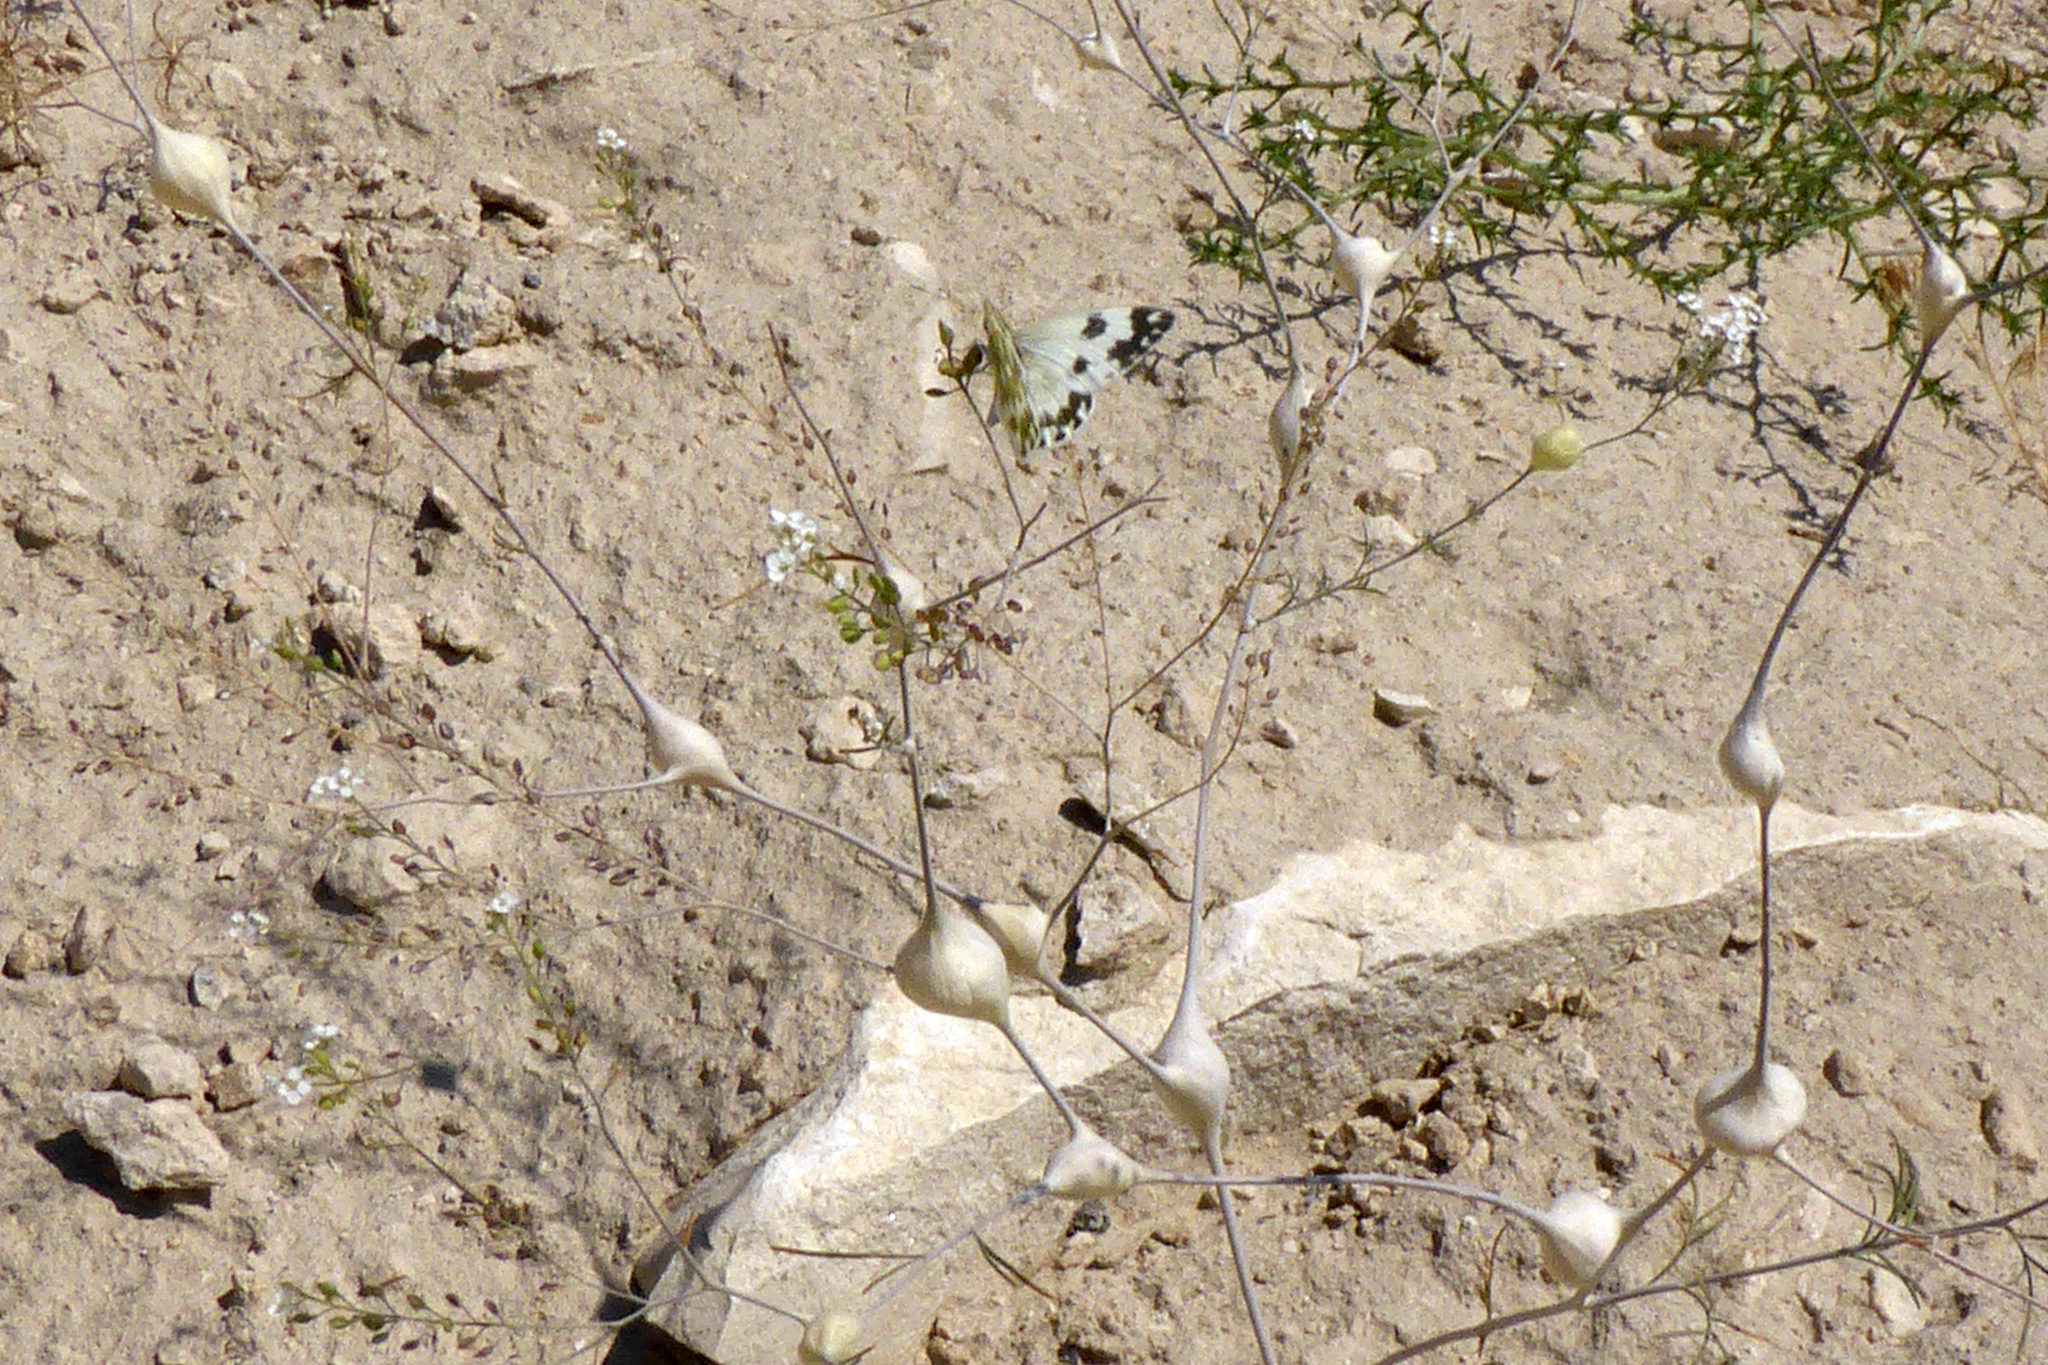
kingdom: Plantae
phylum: Tracheophyta
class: Magnoliopsida
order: Brassicales
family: Brassicaceae
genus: Lepidium
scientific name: Lepidium vesicarium
